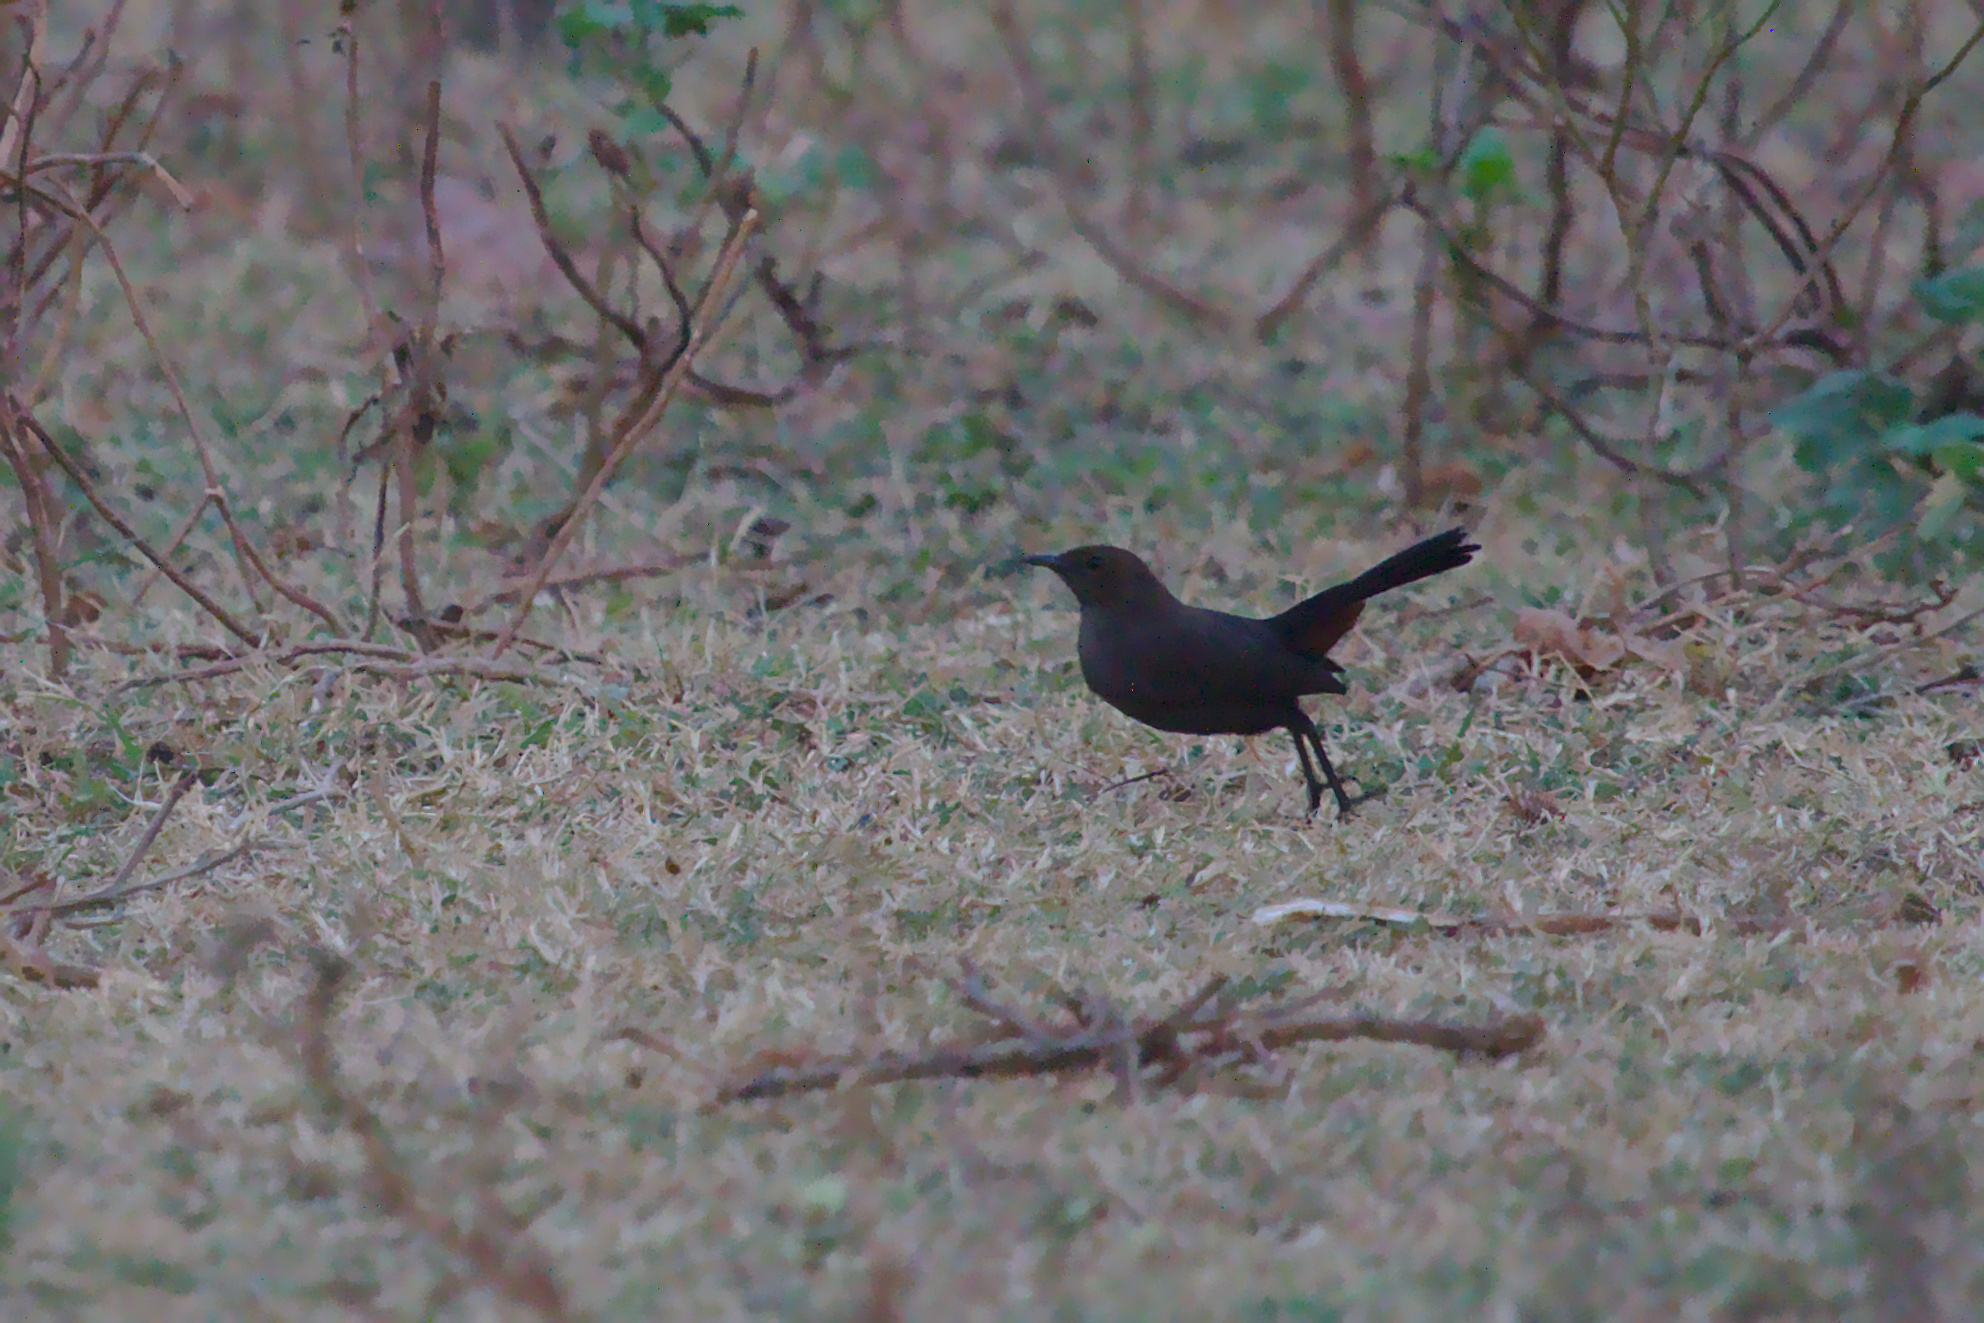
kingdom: Animalia
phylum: Chordata
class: Aves
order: Passeriformes
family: Muscicapidae
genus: Saxicoloides
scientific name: Saxicoloides fulicatus
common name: Indian robin
